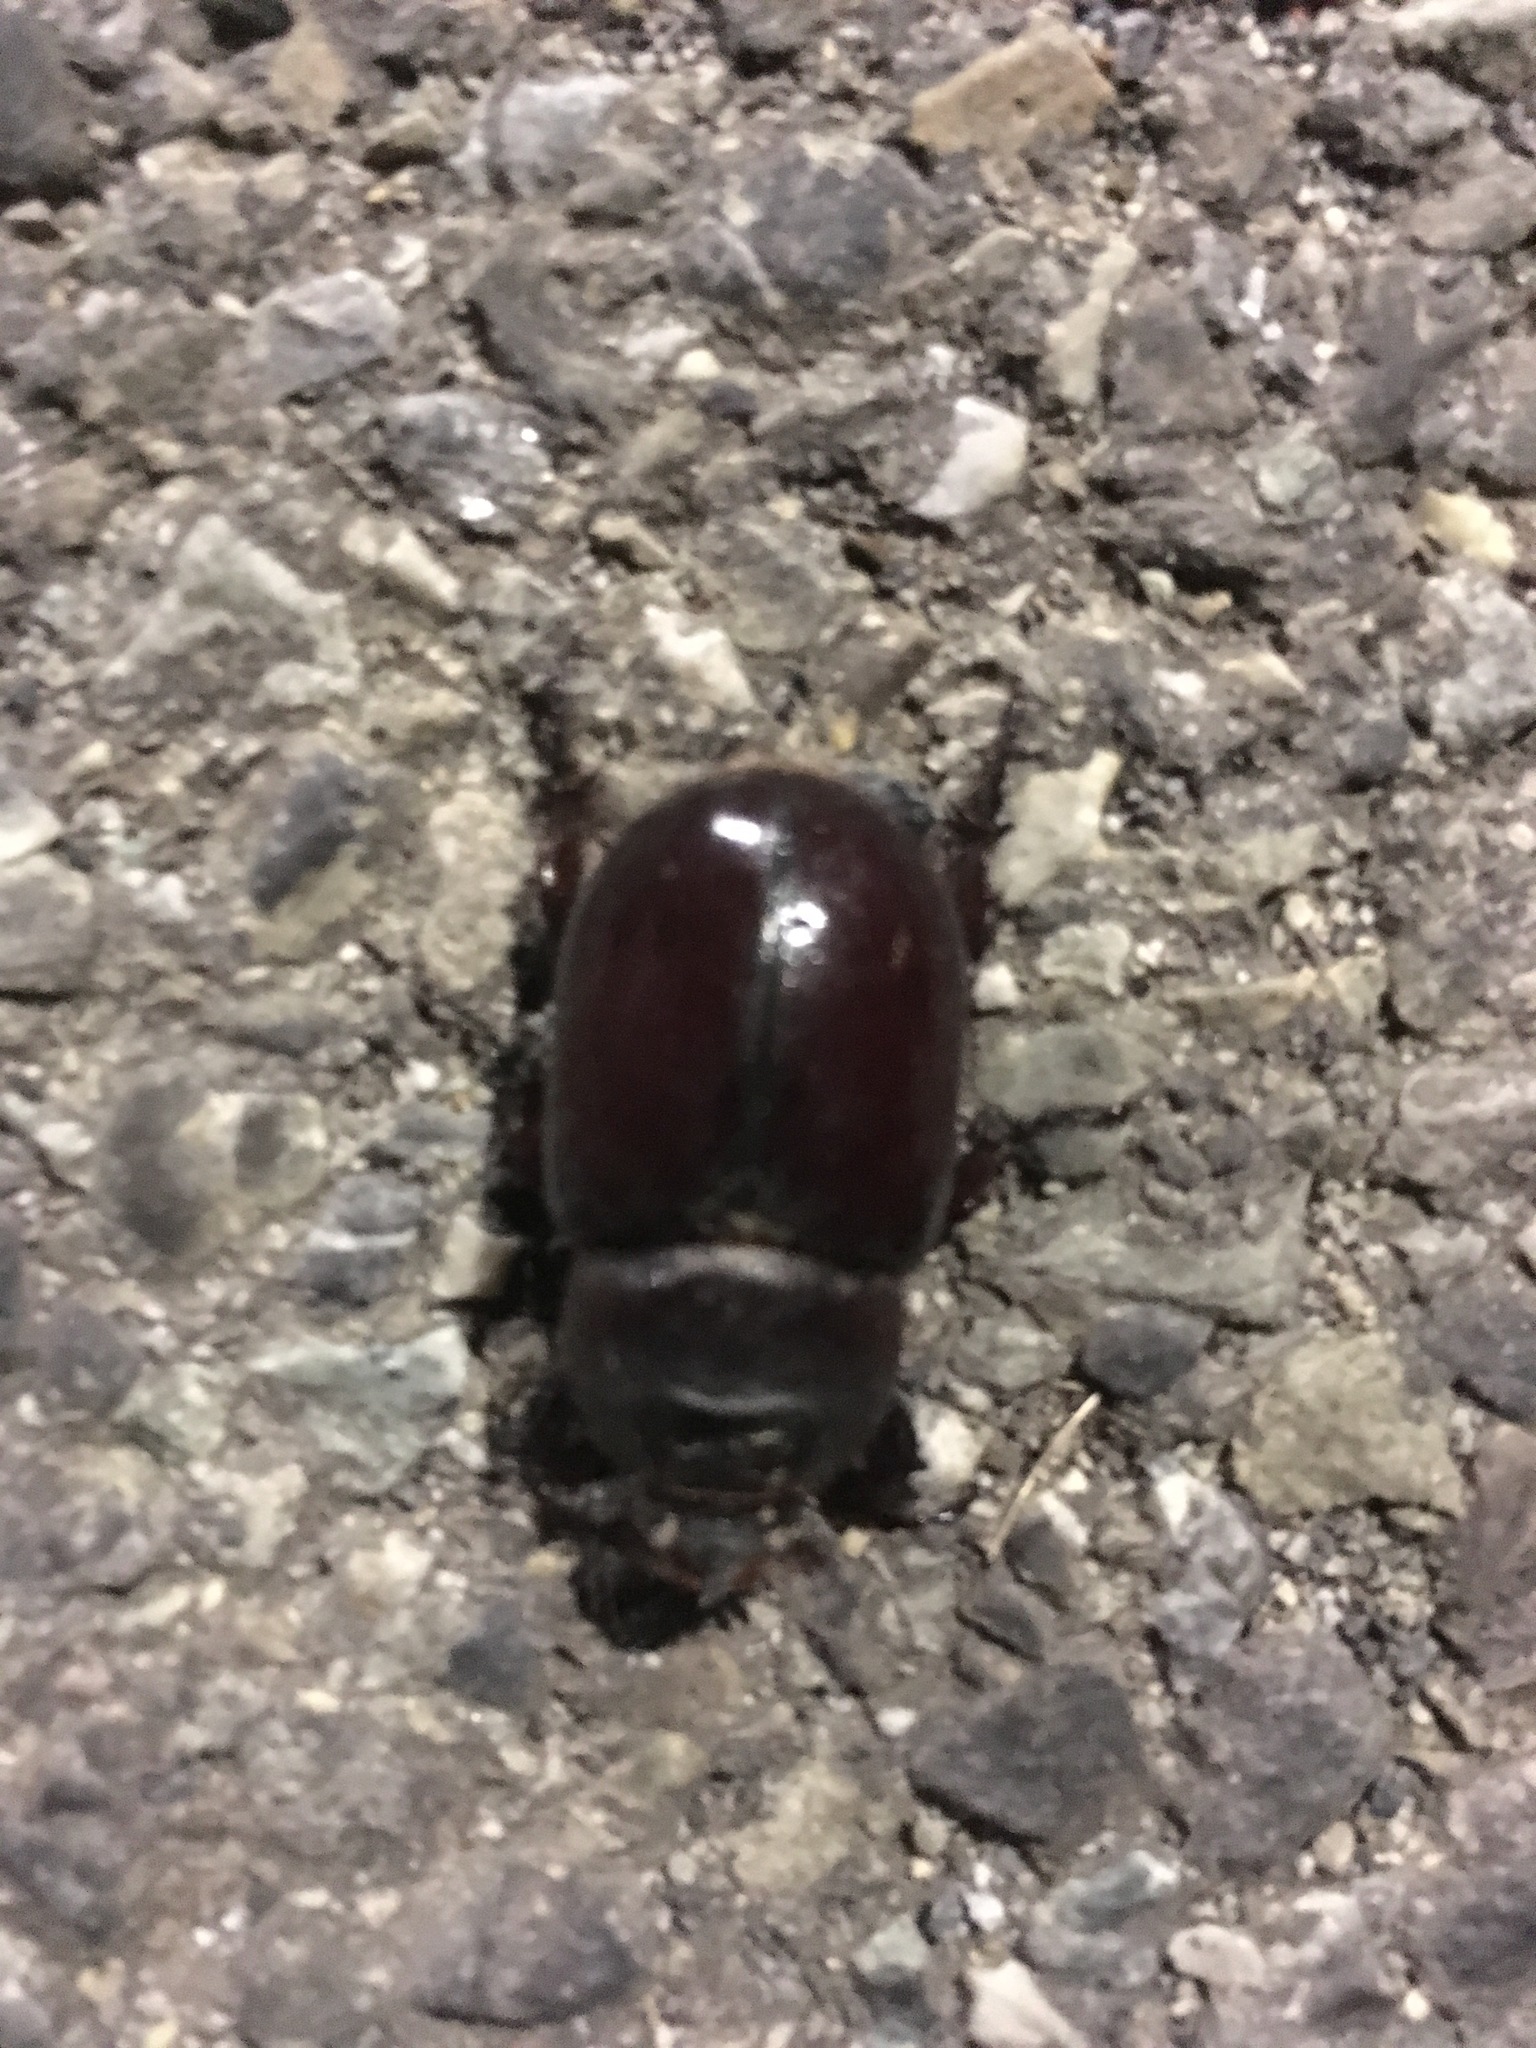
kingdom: Animalia
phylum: Arthropoda
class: Insecta
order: Coleoptera
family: Scarabaeidae
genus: Oryctes
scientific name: Oryctes nasicornis
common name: European rhinoceros beetle
